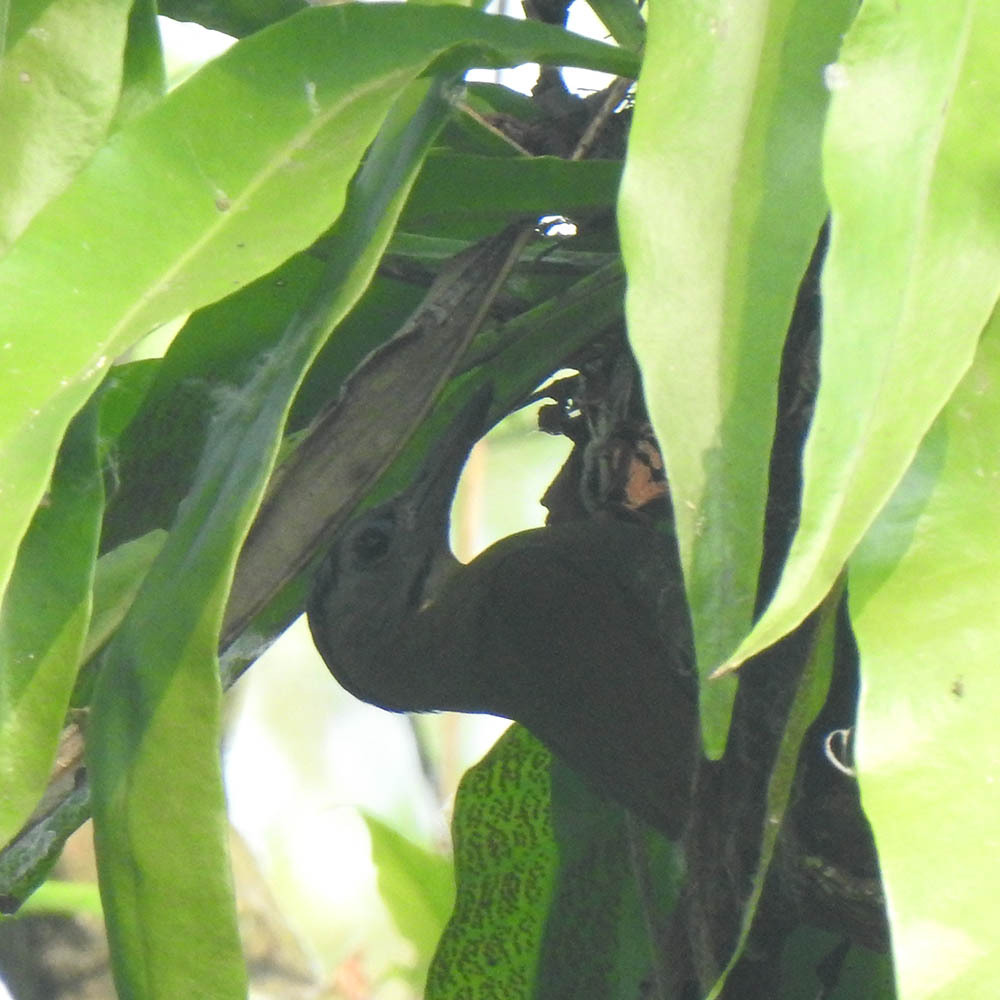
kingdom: Animalia
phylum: Chordata
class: Aves
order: Piciformes
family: Picidae
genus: Picus
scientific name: Picus canus
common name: Grey-headed woodpecker
